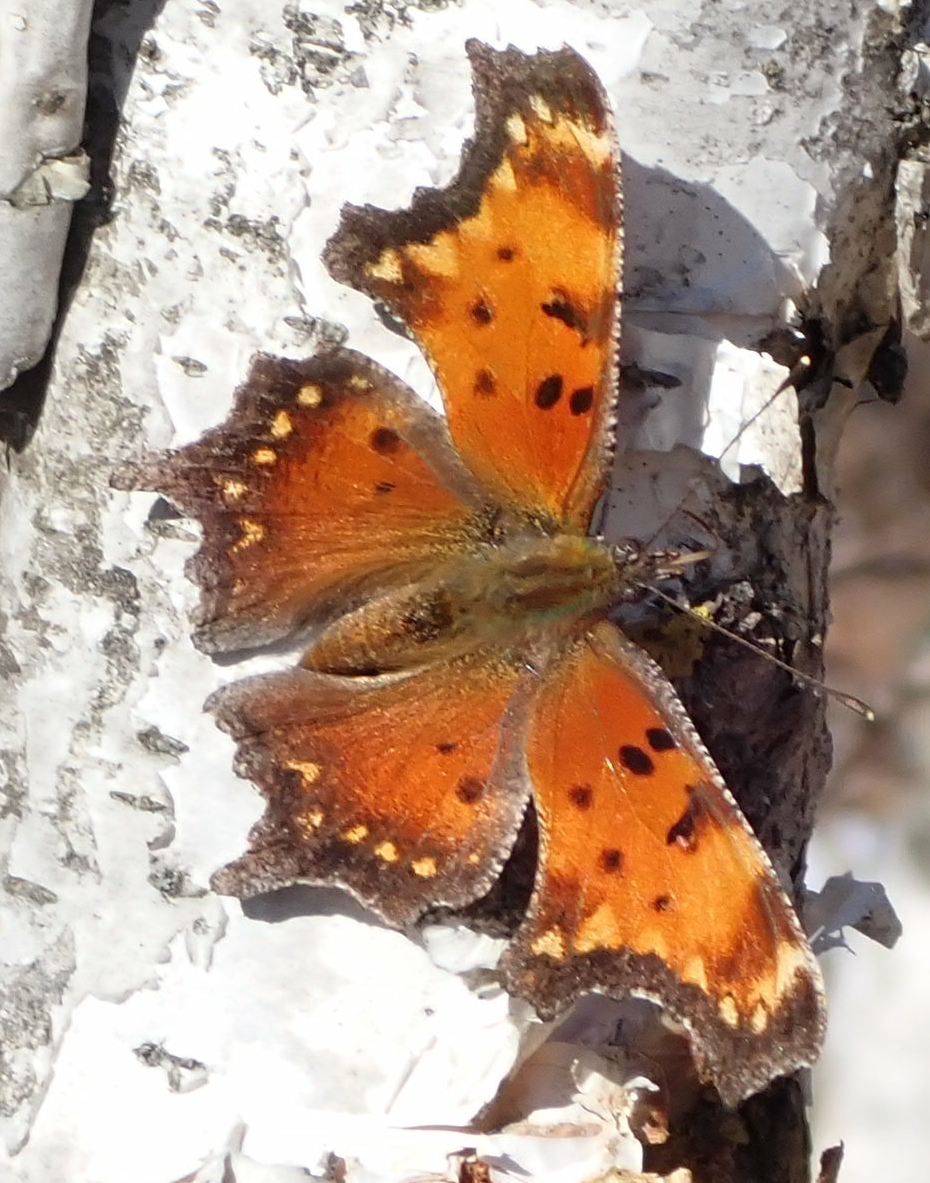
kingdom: Animalia
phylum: Arthropoda
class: Insecta
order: Lepidoptera
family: Nymphalidae
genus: Polygonia
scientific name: Polygonia progne
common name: Gray comma
